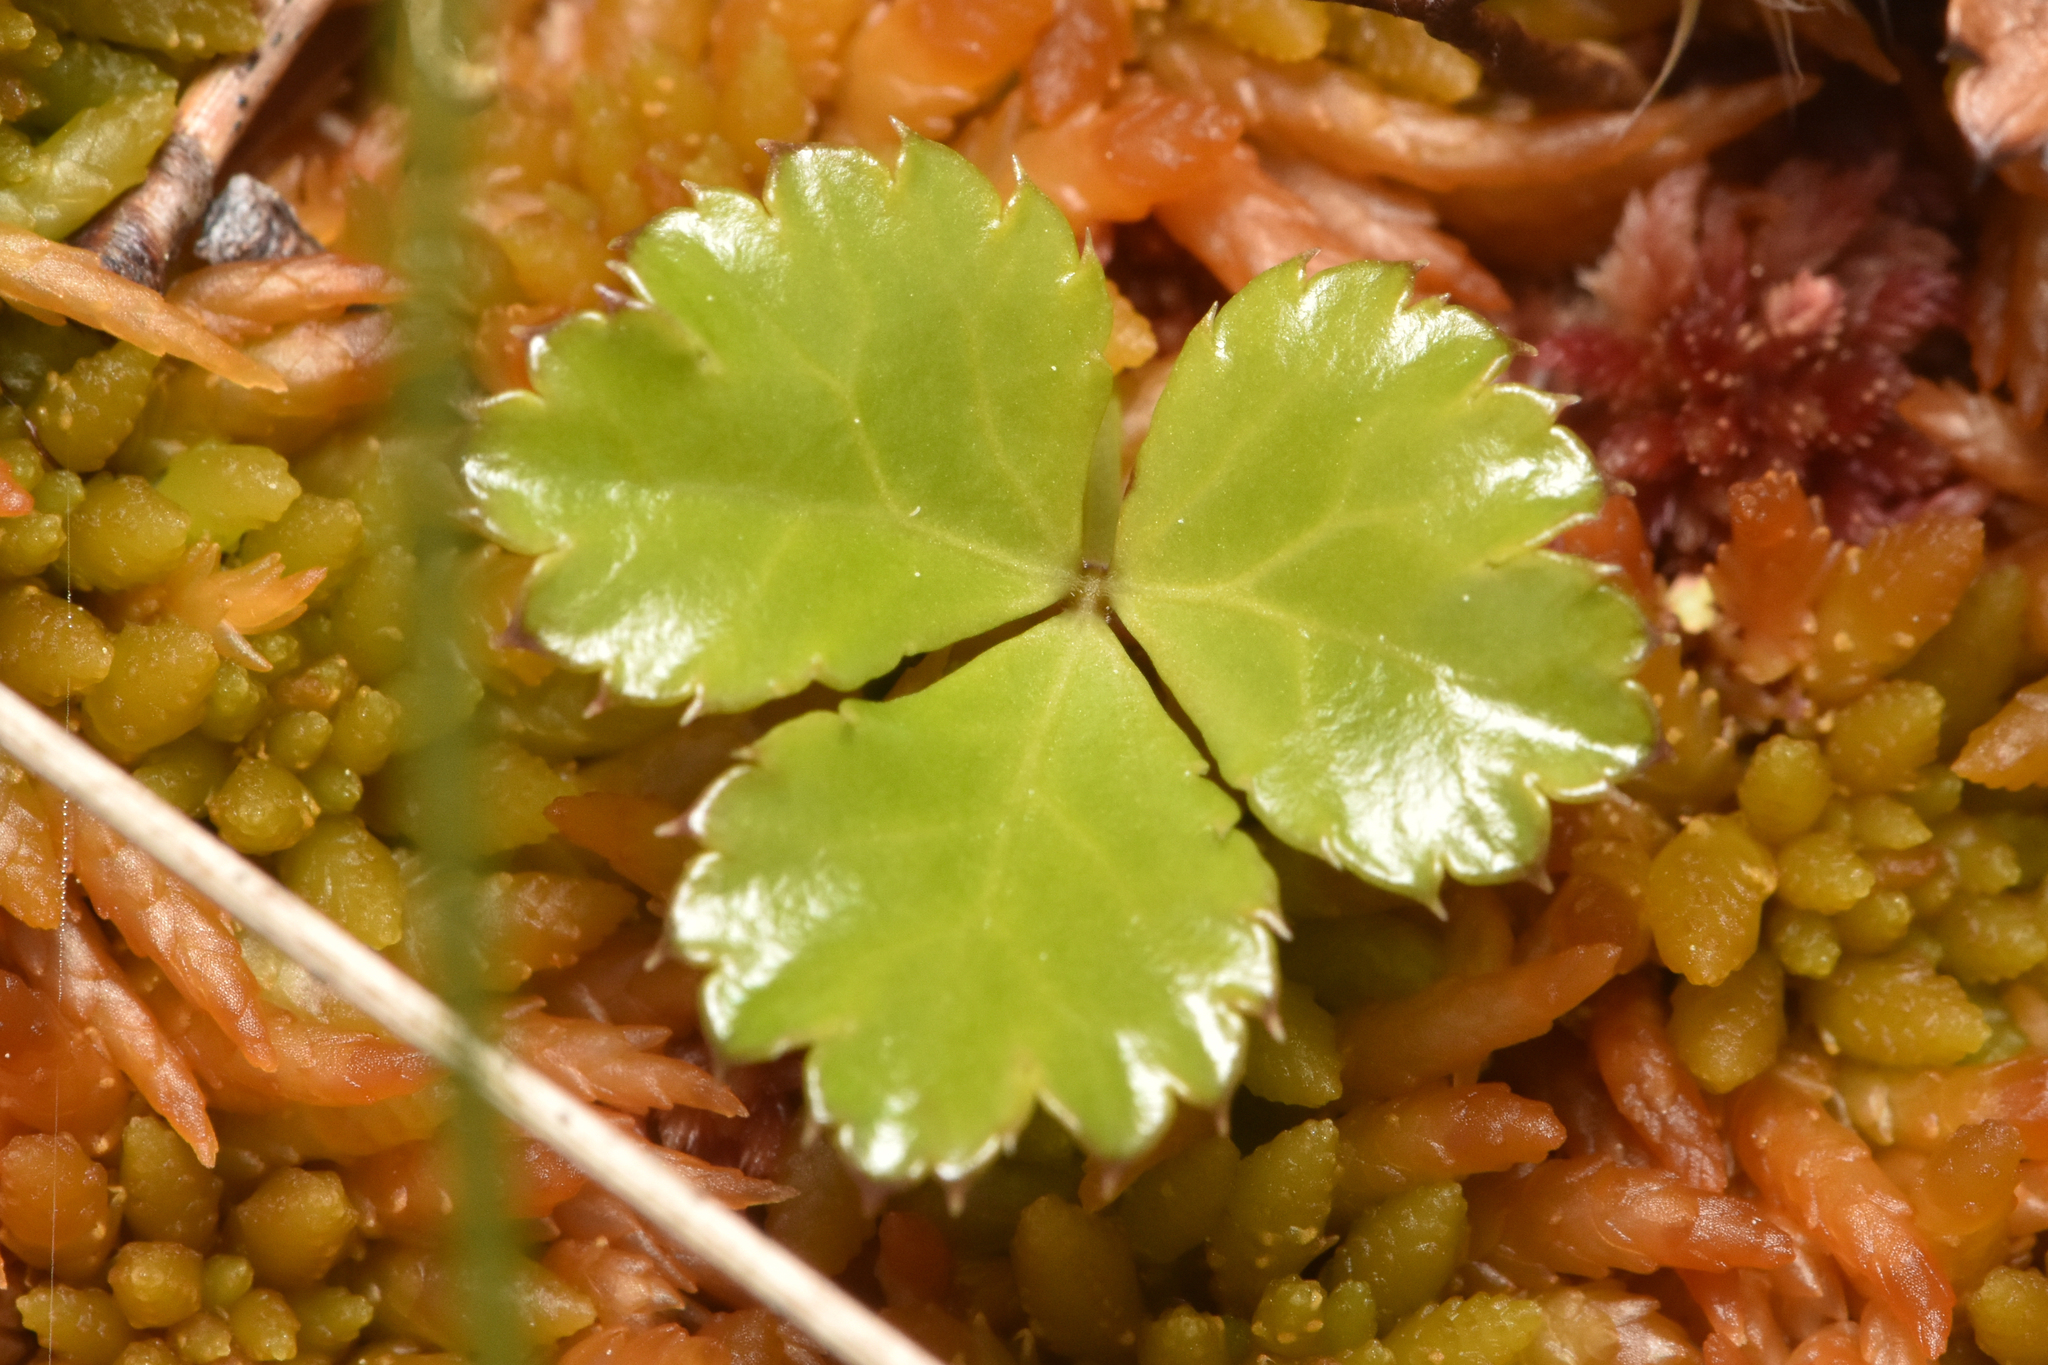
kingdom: Plantae
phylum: Tracheophyta
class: Magnoliopsida
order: Ranunculales
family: Ranunculaceae
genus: Coptis
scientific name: Coptis trifolia
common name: Canker-root
